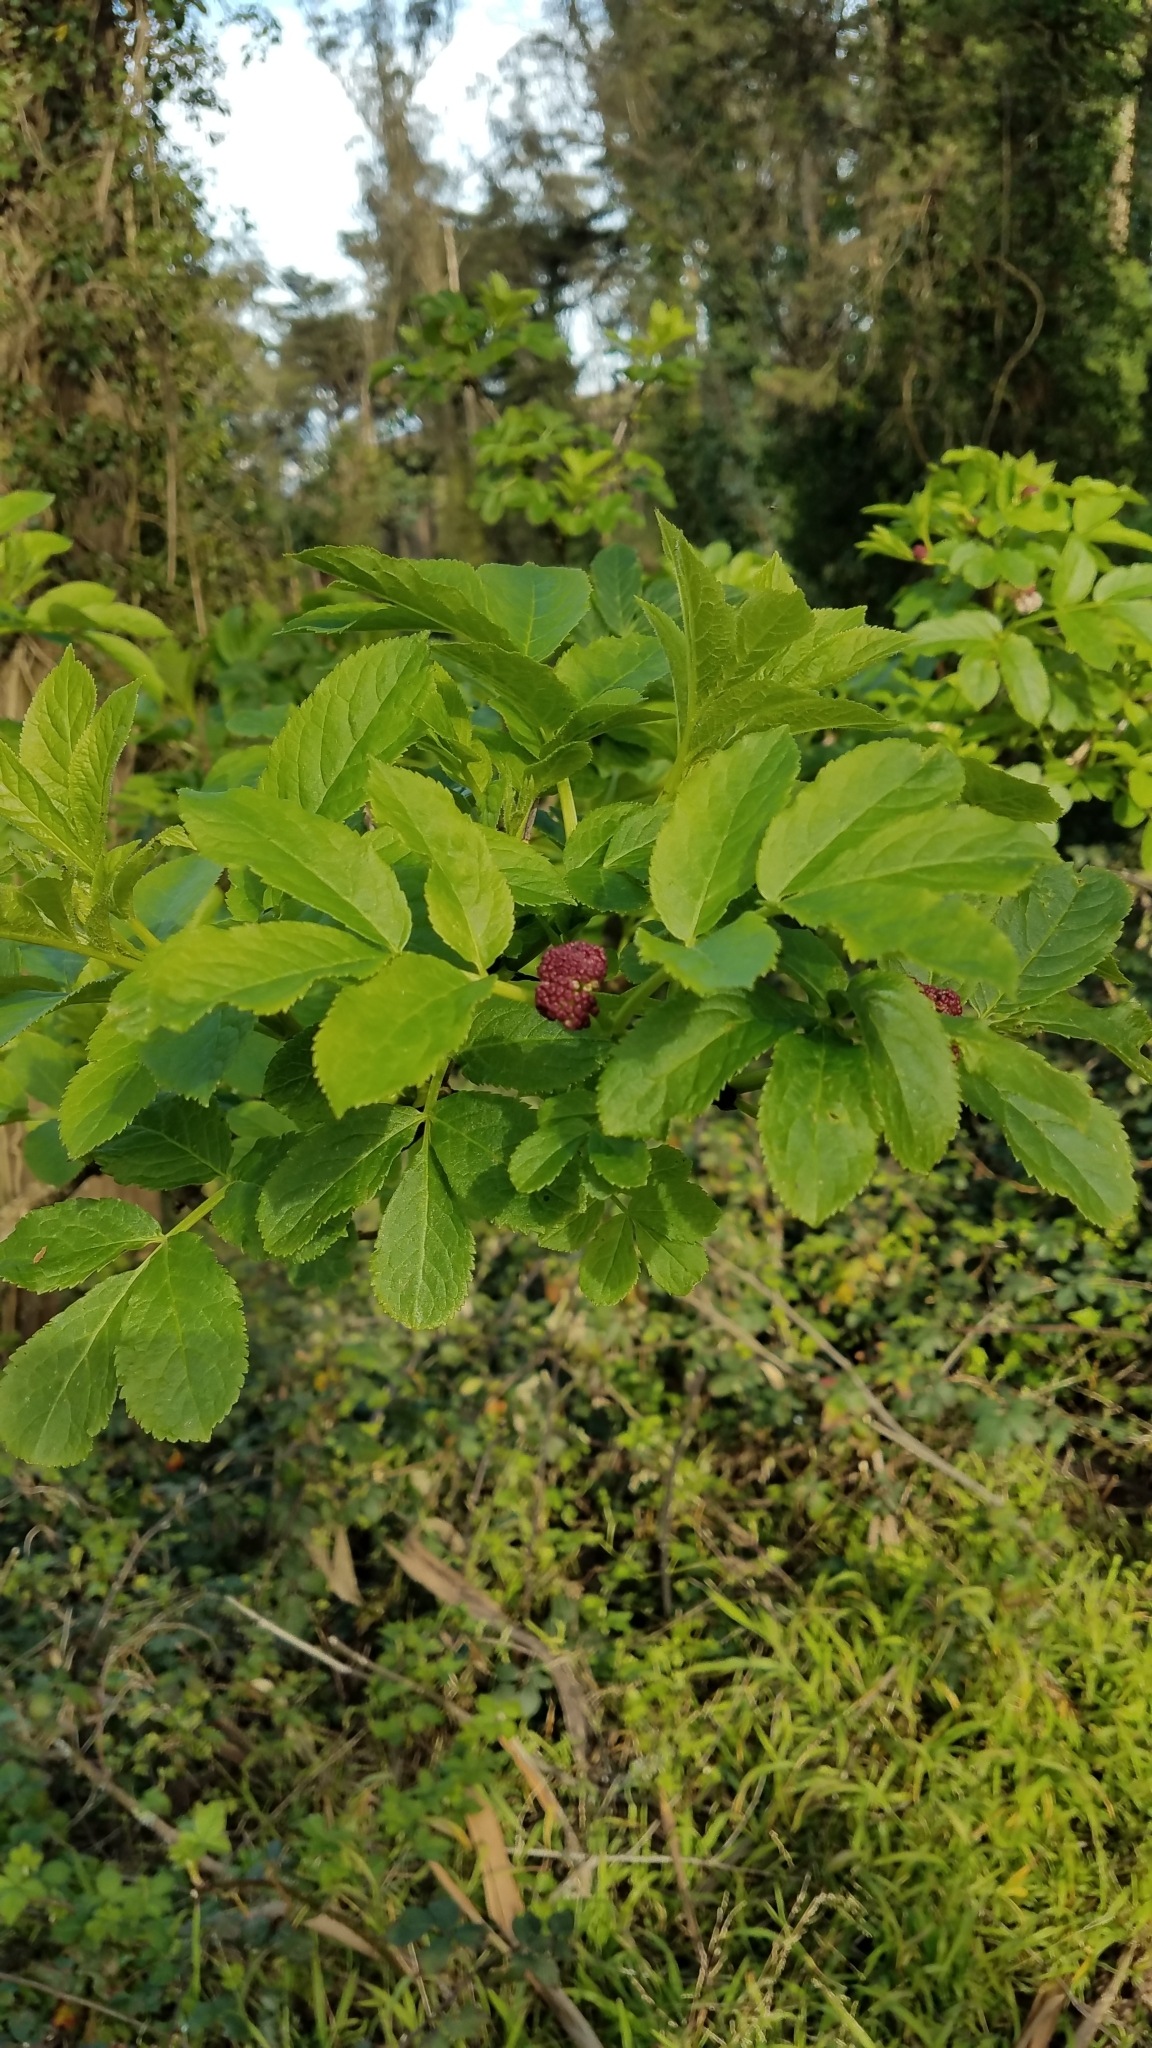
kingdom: Plantae
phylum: Tracheophyta
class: Magnoliopsida
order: Dipsacales
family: Viburnaceae
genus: Sambucus
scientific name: Sambucus racemosa
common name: Red-berried elder
